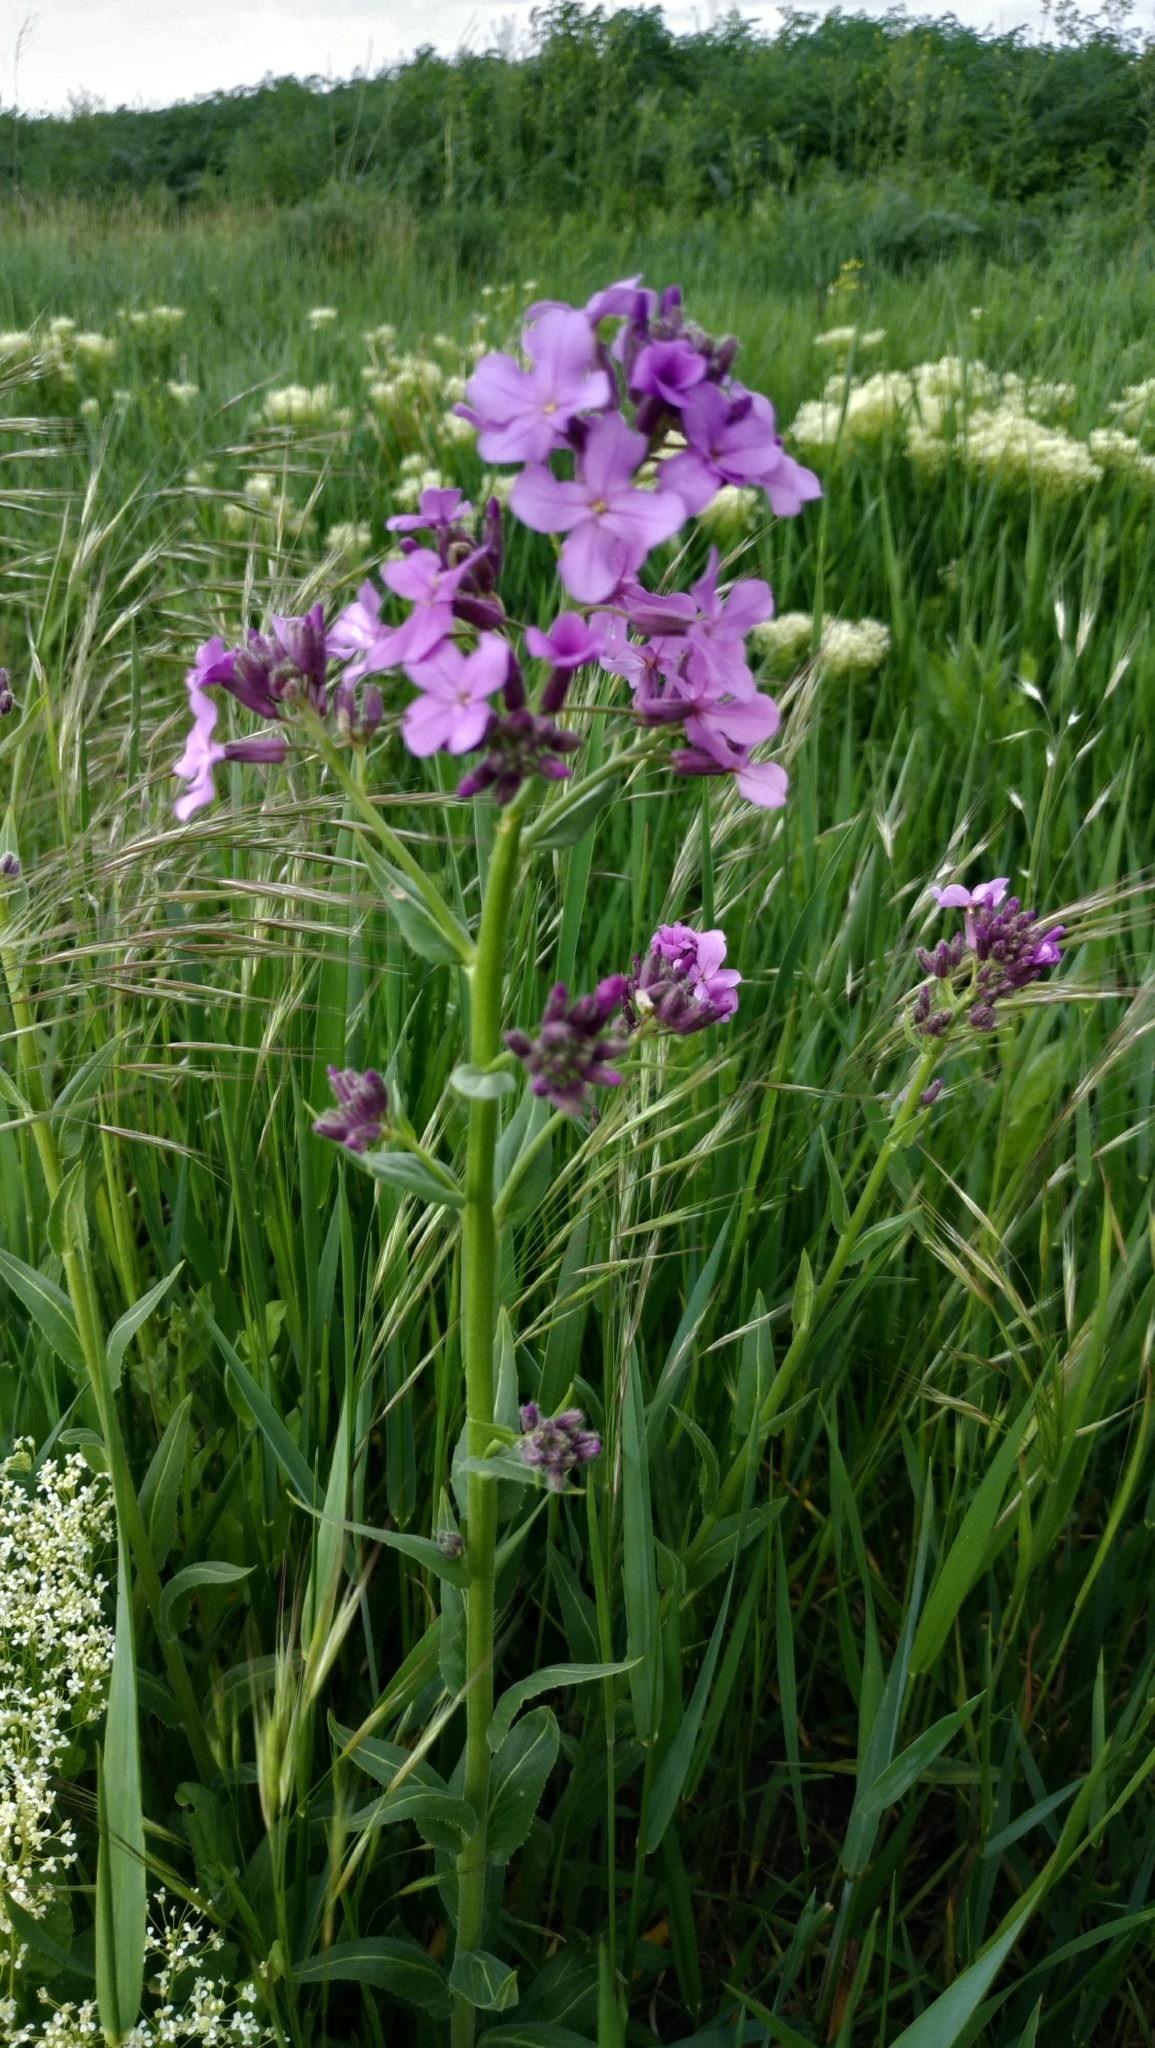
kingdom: Plantae
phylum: Tracheophyta
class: Magnoliopsida
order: Brassicales
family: Brassicaceae
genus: Hesperis
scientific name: Hesperis matronalis
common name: Dame's-violet
